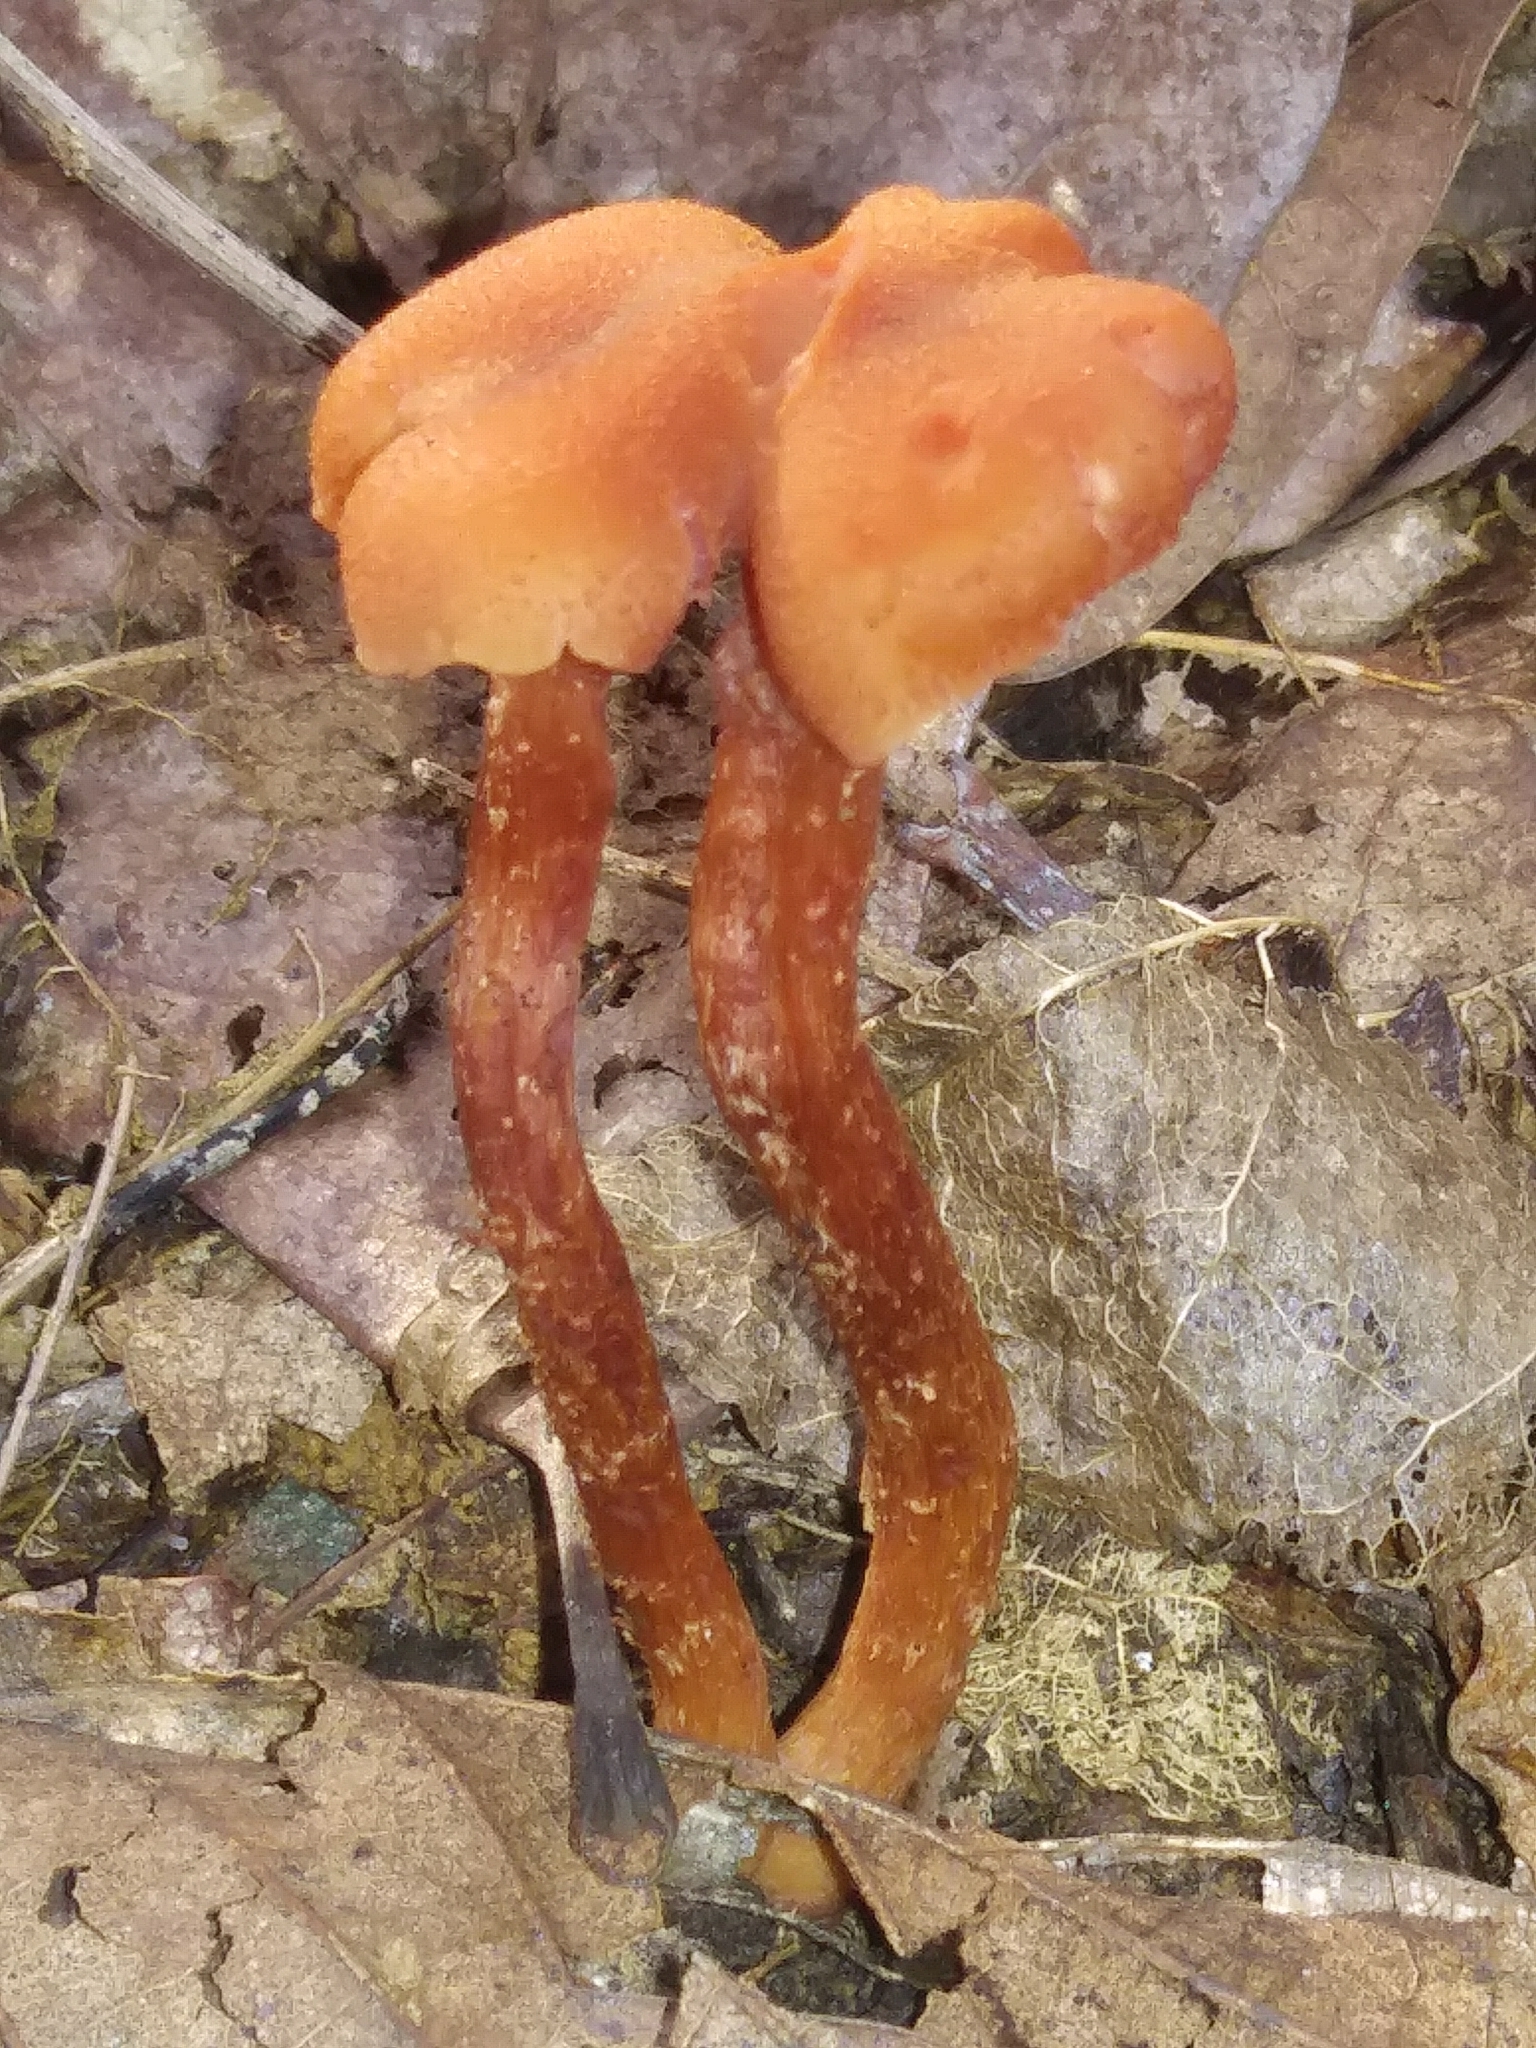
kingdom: Fungi
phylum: Basidiomycota
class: Agaricomycetes
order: Agaricales
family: Hydnangiaceae
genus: Laccaria
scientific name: Laccaria laccata
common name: Deceiver
